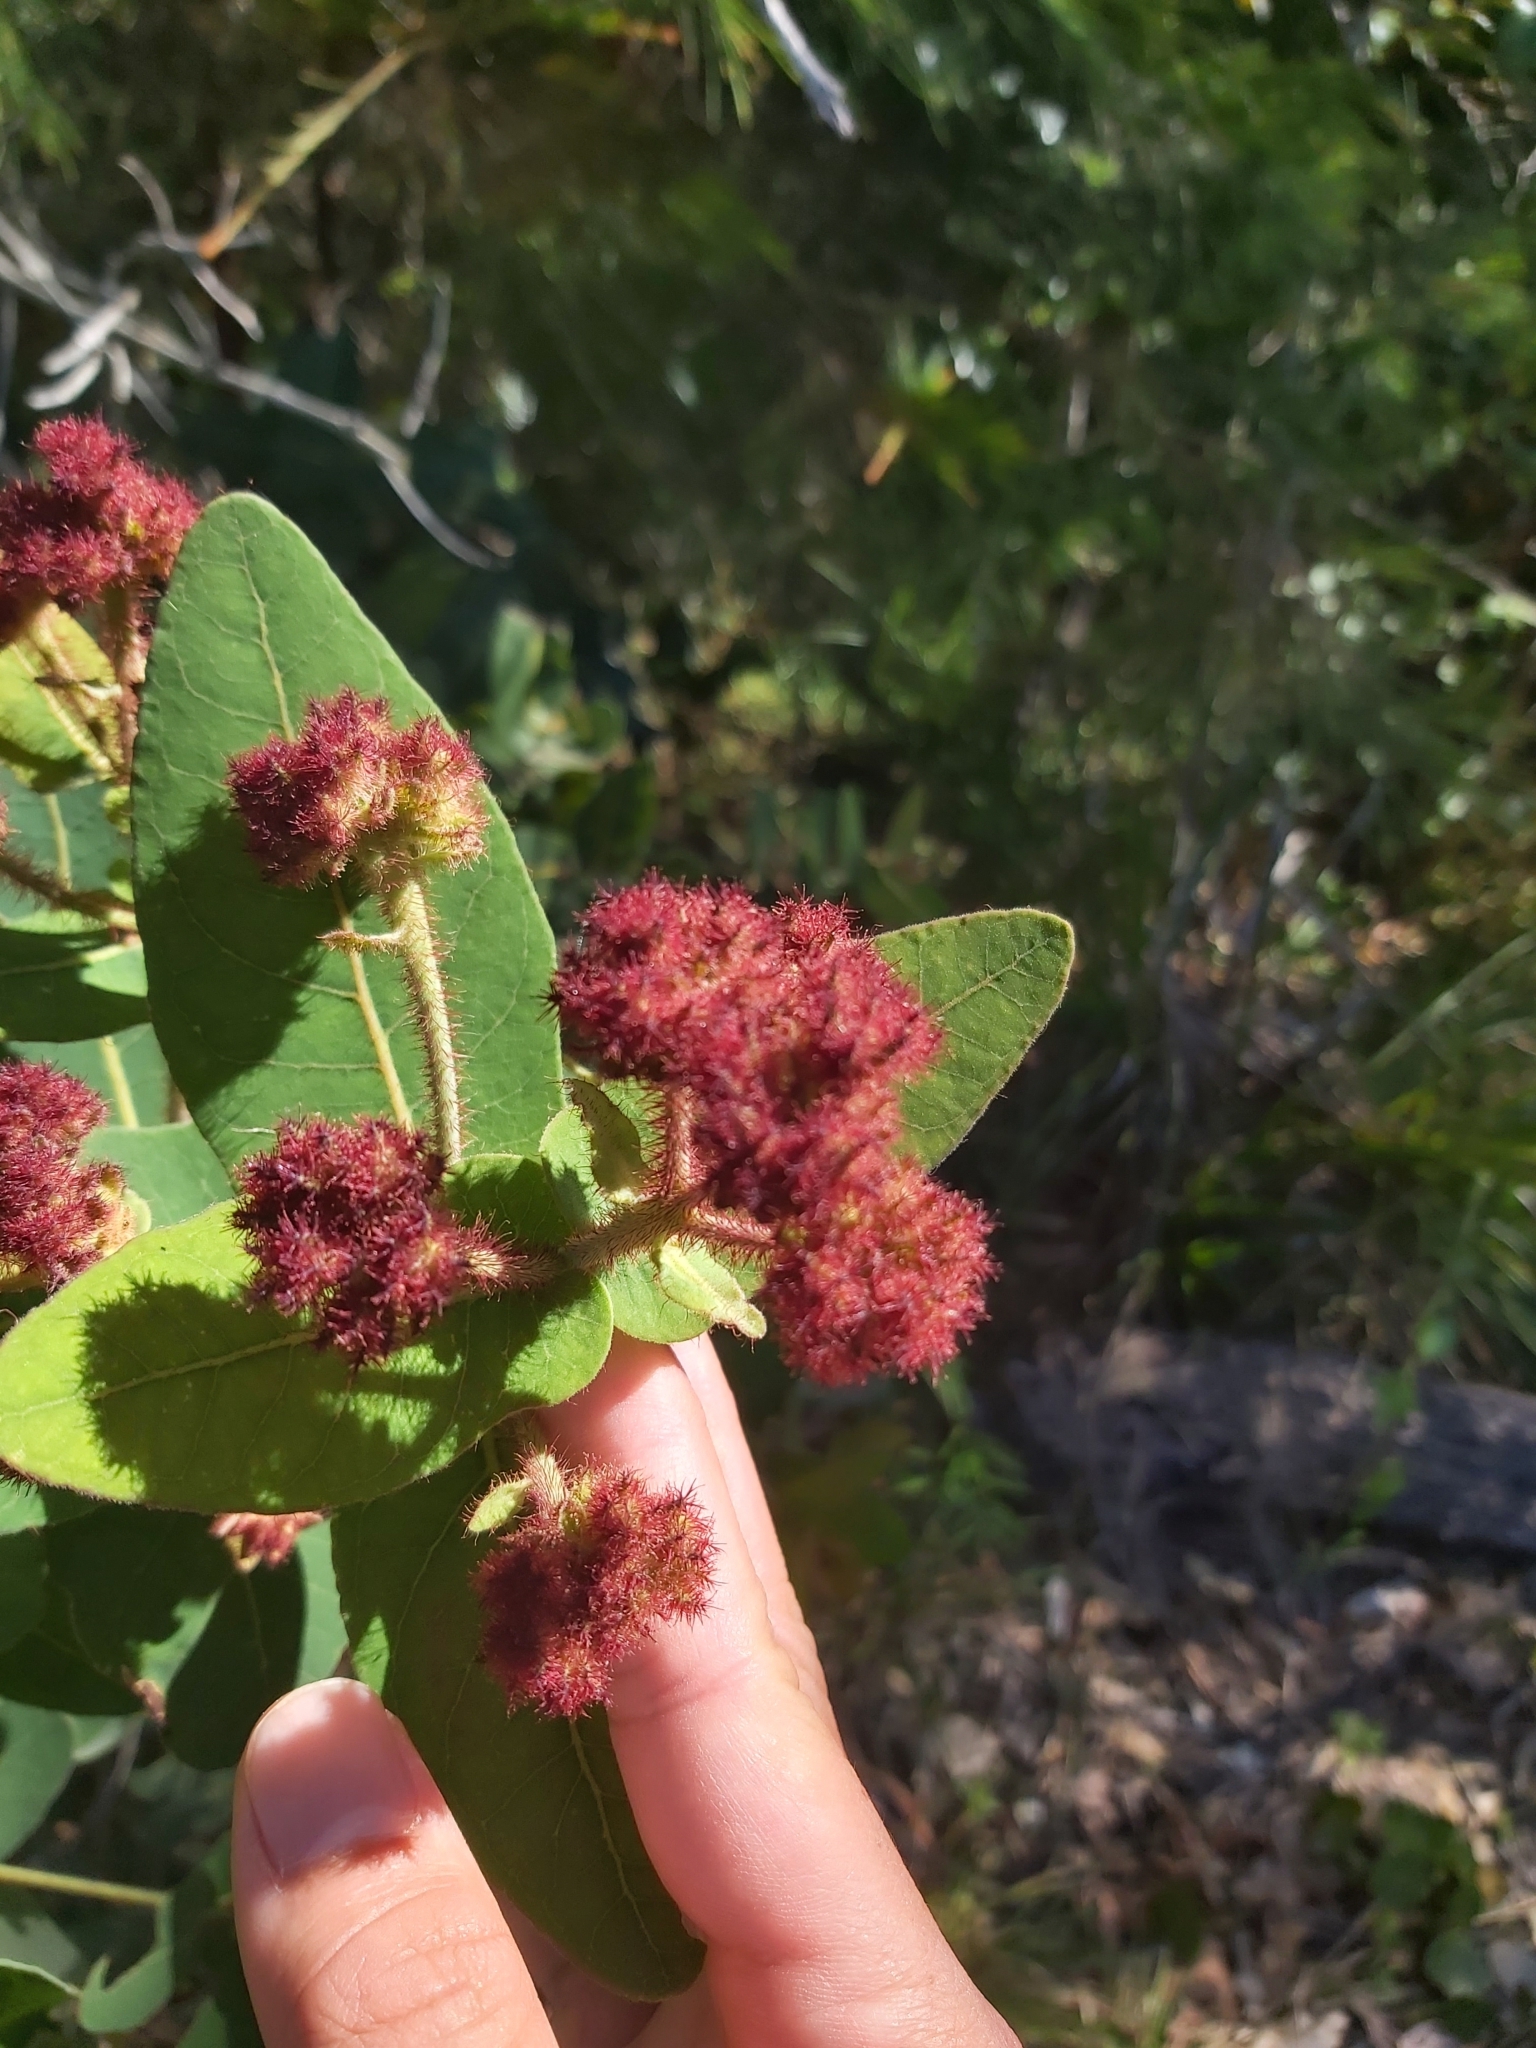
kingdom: Plantae
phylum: Tracheophyta
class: Magnoliopsida
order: Myrtales
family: Myrtaceae
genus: Angophora
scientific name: Angophora hispida
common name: Dwarf-apple
